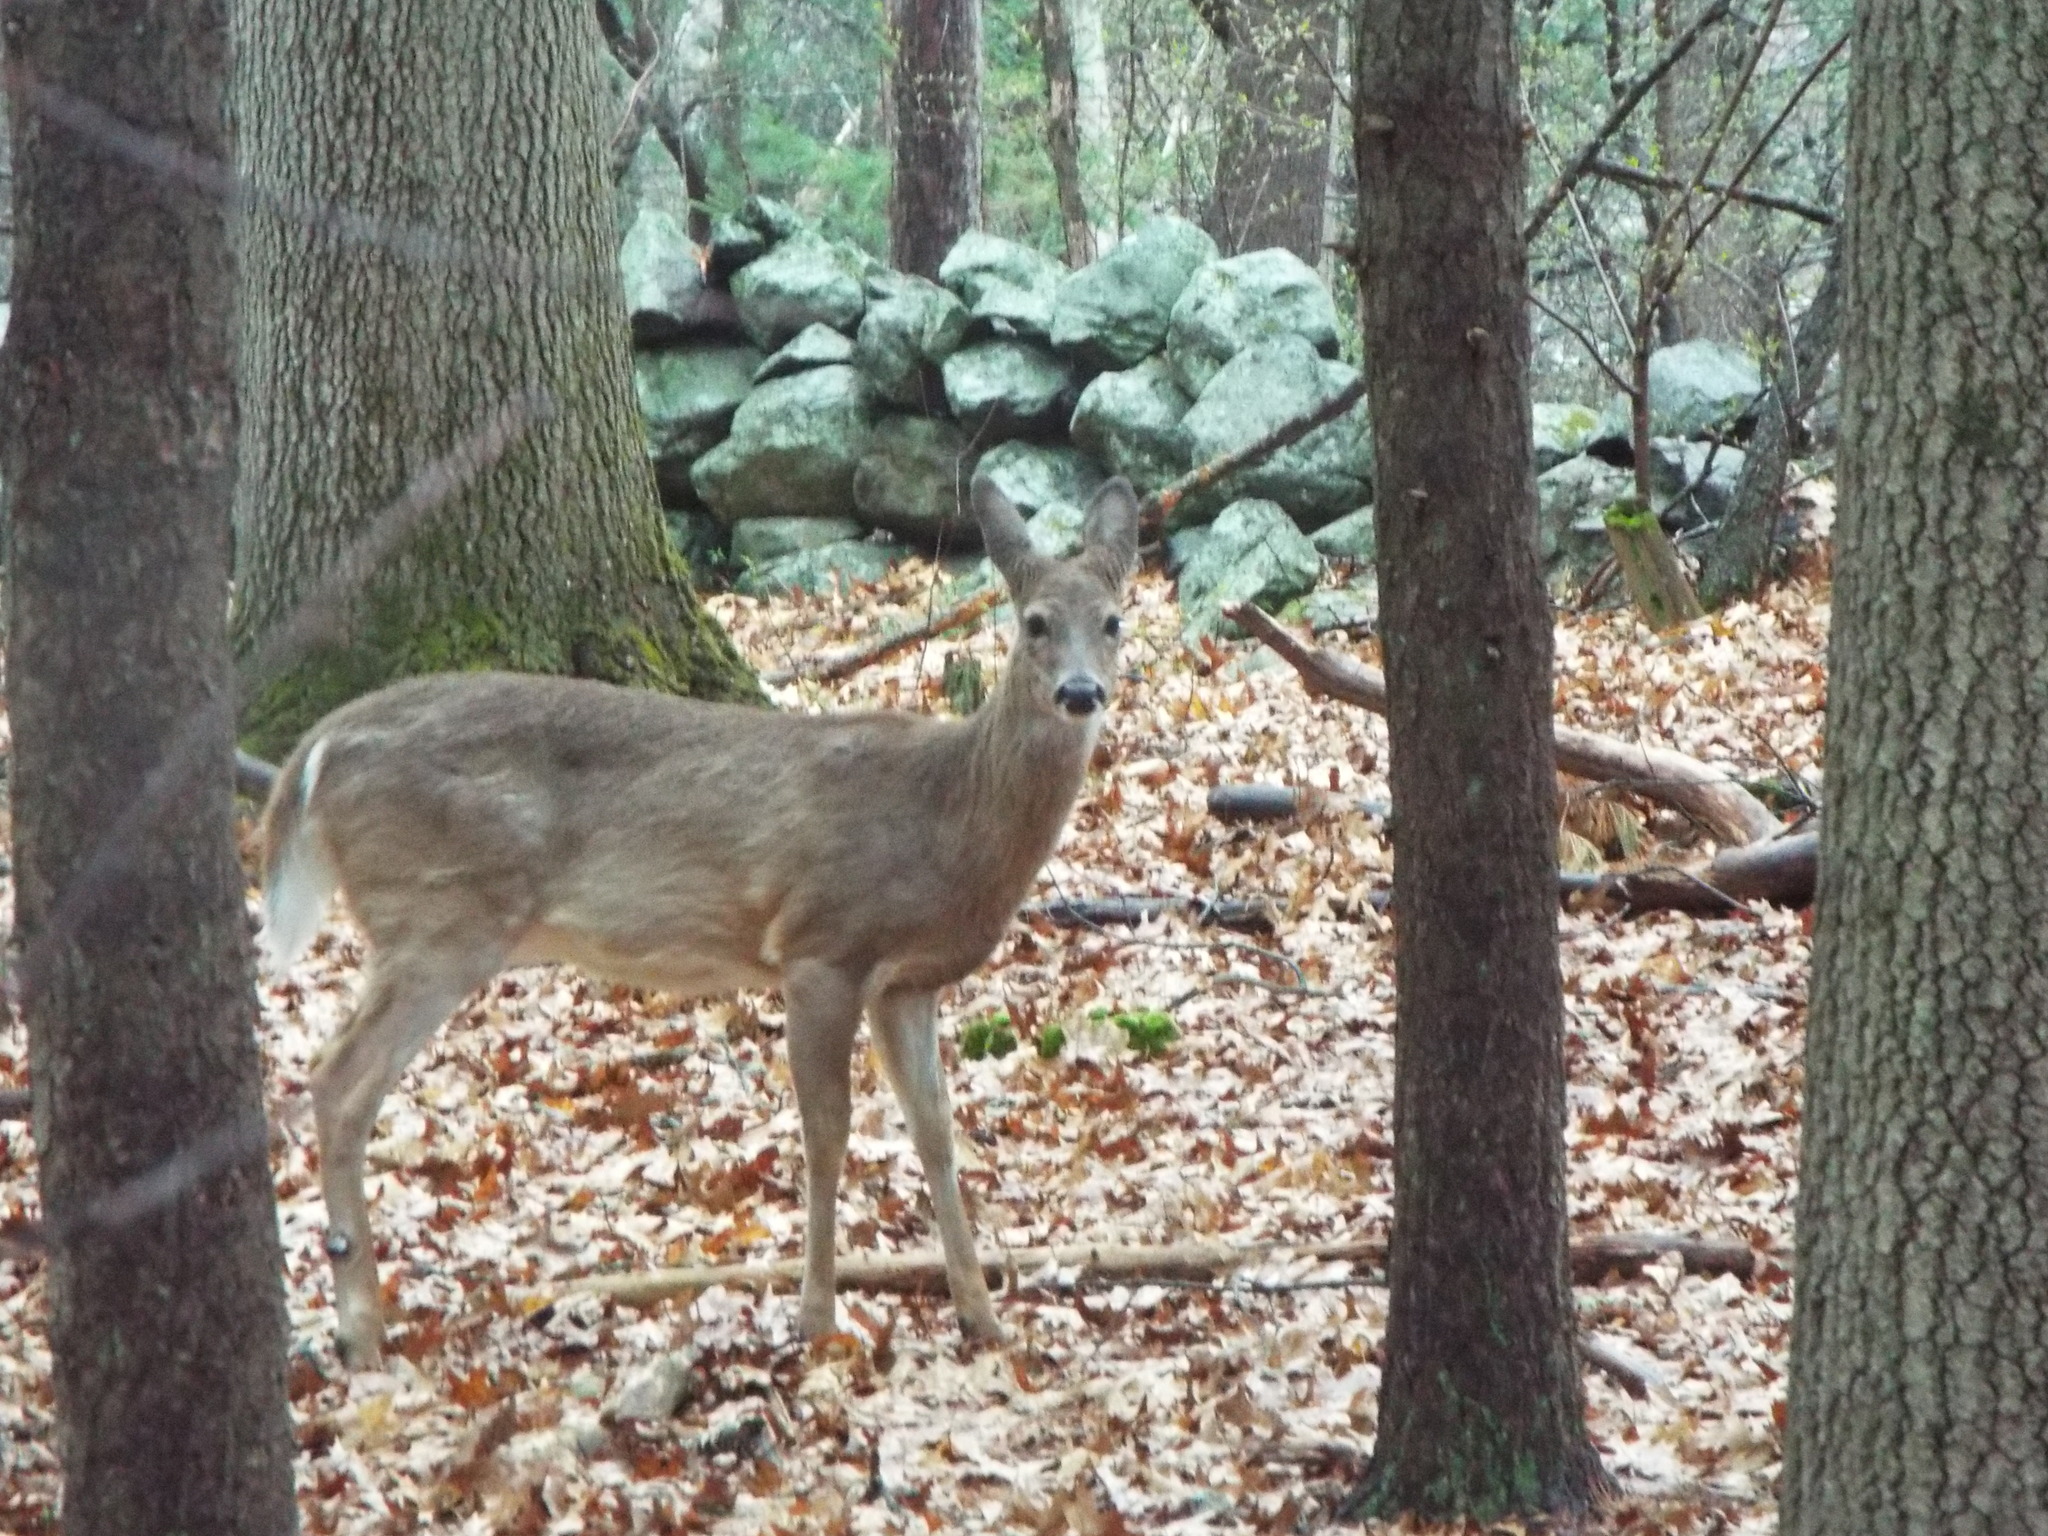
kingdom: Animalia
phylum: Chordata
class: Mammalia
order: Artiodactyla
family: Cervidae
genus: Odocoileus
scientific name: Odocoileus virginianus
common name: White-tailed deer
